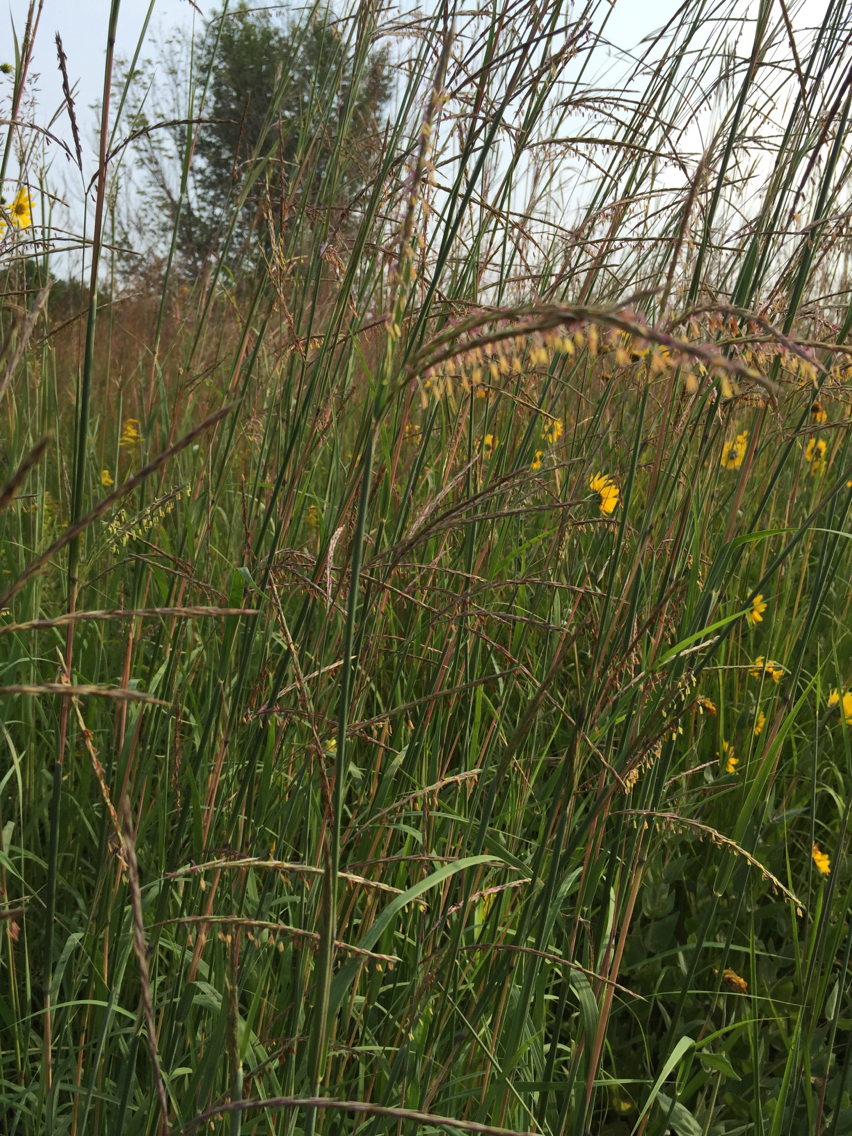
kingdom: Plantae
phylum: Tracheophyta
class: Liliopsida
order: Poales
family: Poaceae
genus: Andropogon
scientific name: Andropogon gerardi
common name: Big bluestem
